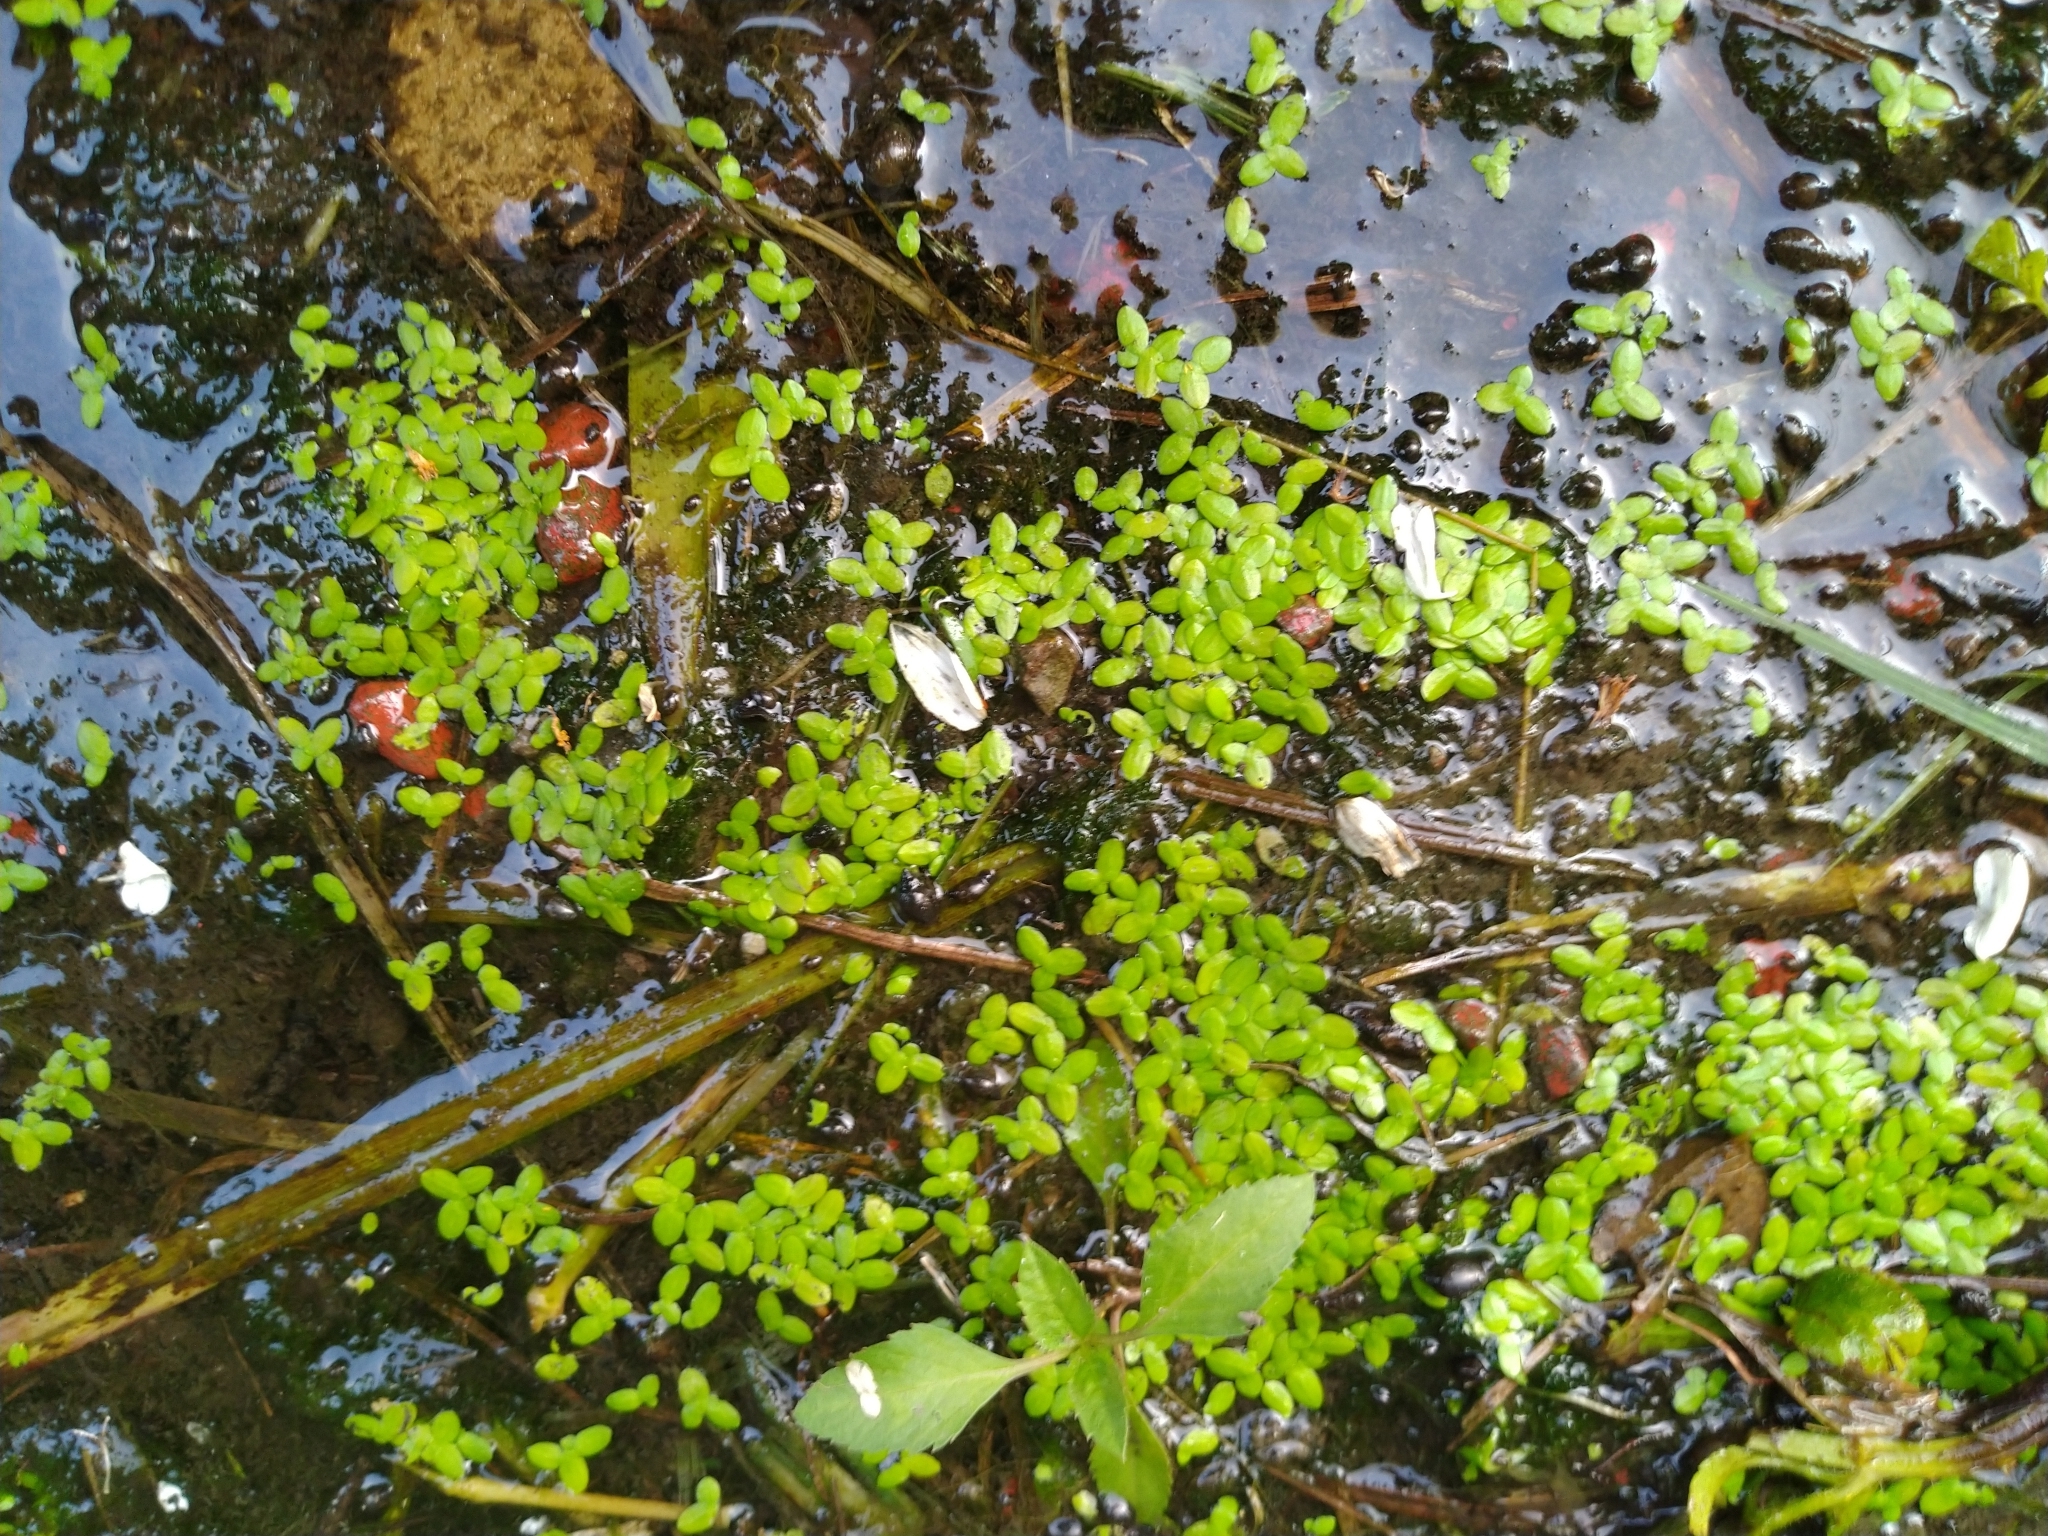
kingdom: Plantae
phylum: Tracheophyta
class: Liliopsida
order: Alismatales
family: Araceae
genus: Lemna
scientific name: Lemna aequinoctialis
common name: Duckweed
